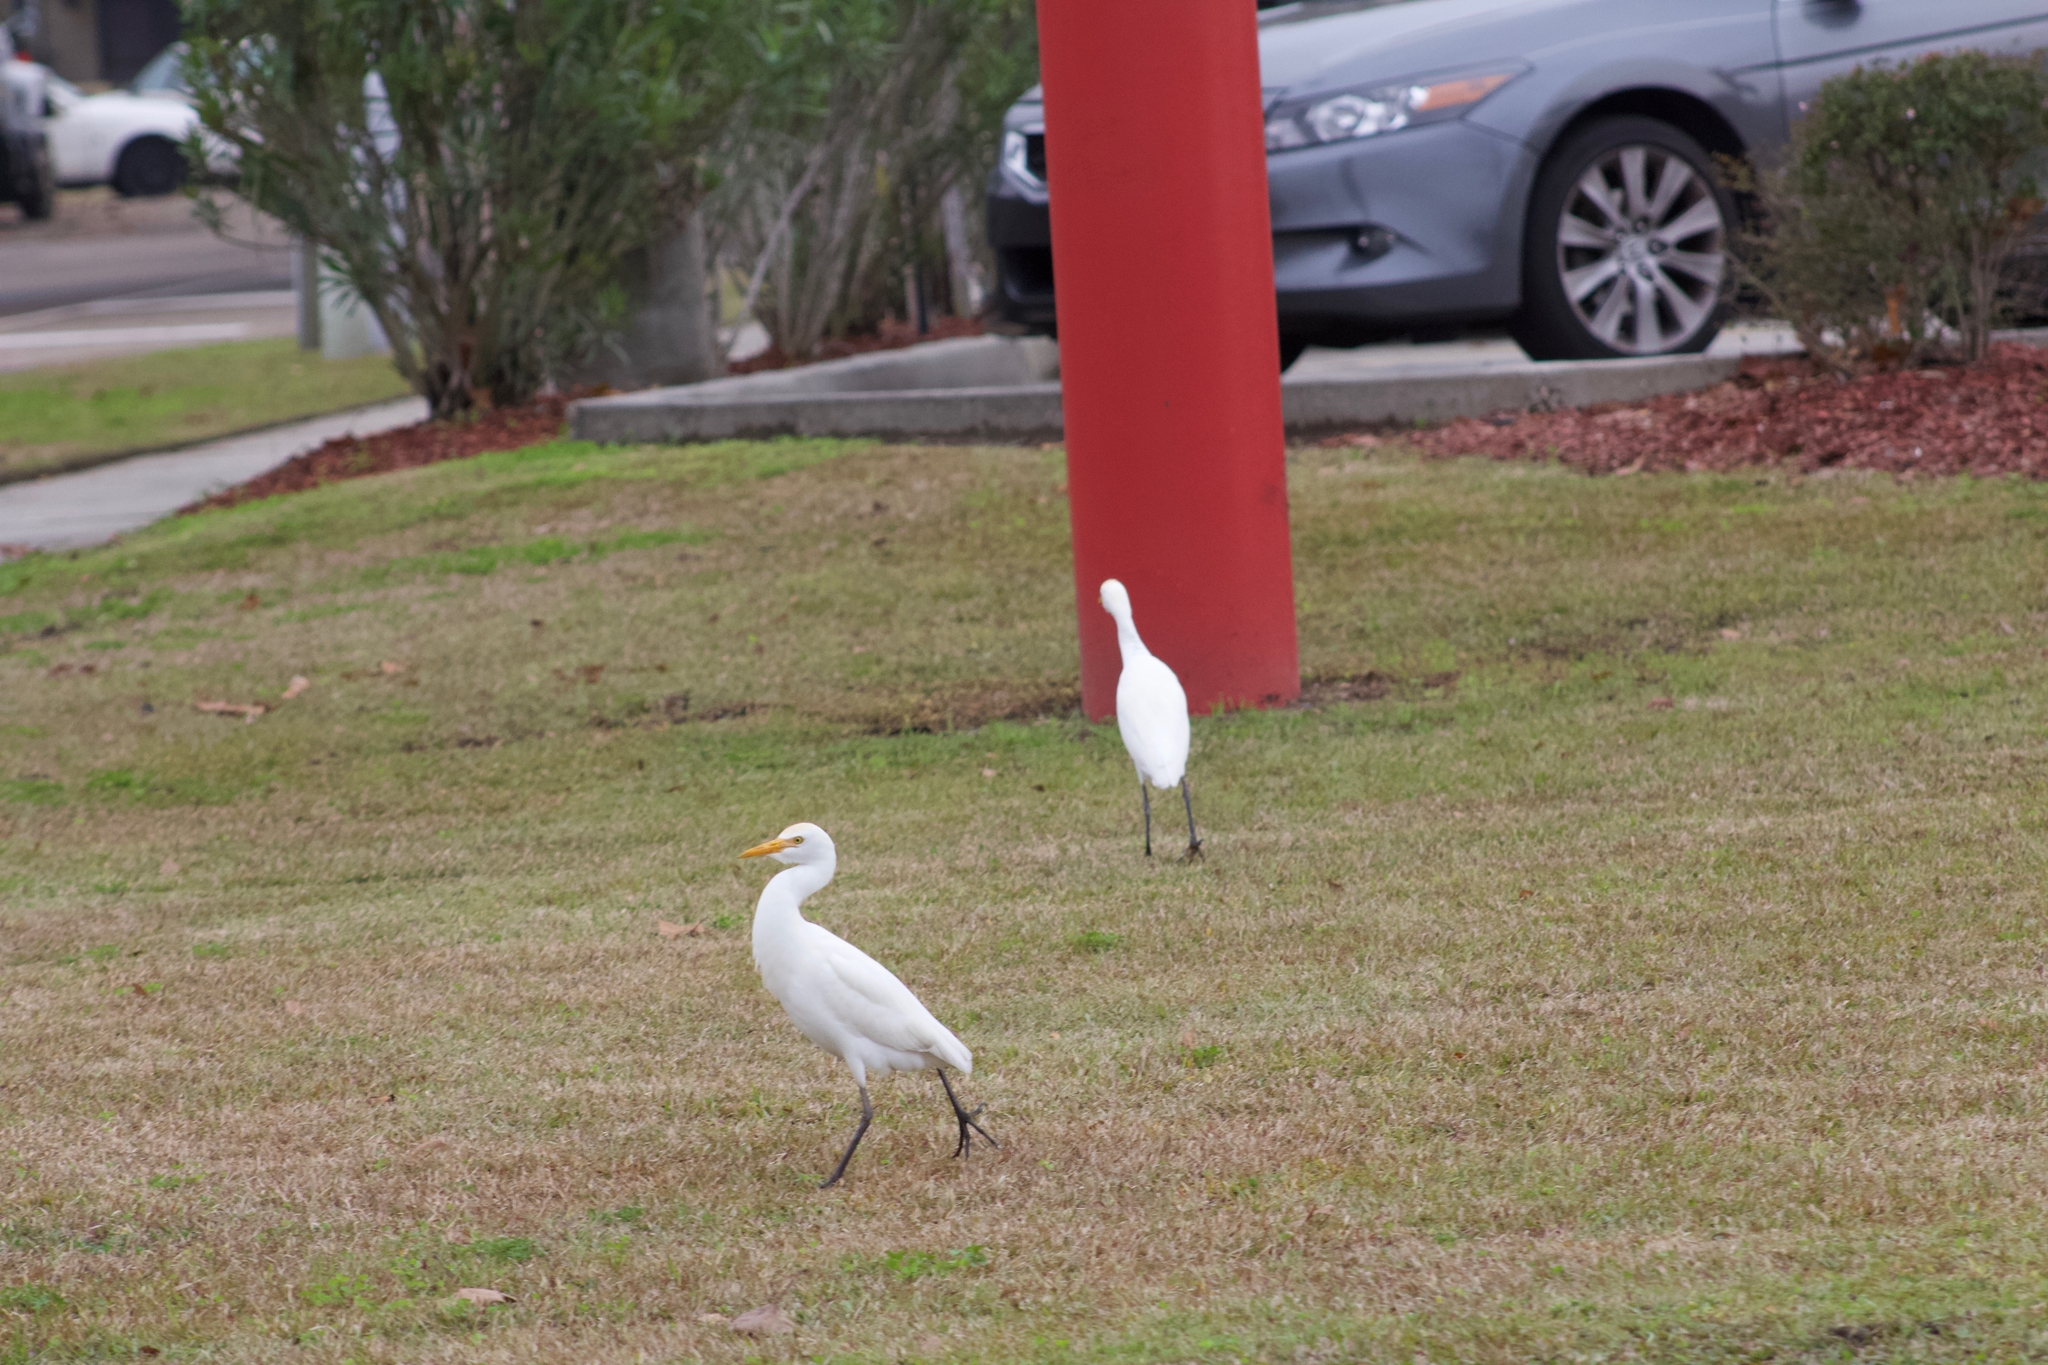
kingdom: Animalia
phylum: Chordata
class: Aves
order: Pelecaniformes
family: Ardeidae
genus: Bubulcus
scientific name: Bubulcus ibis
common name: Cattle egret
